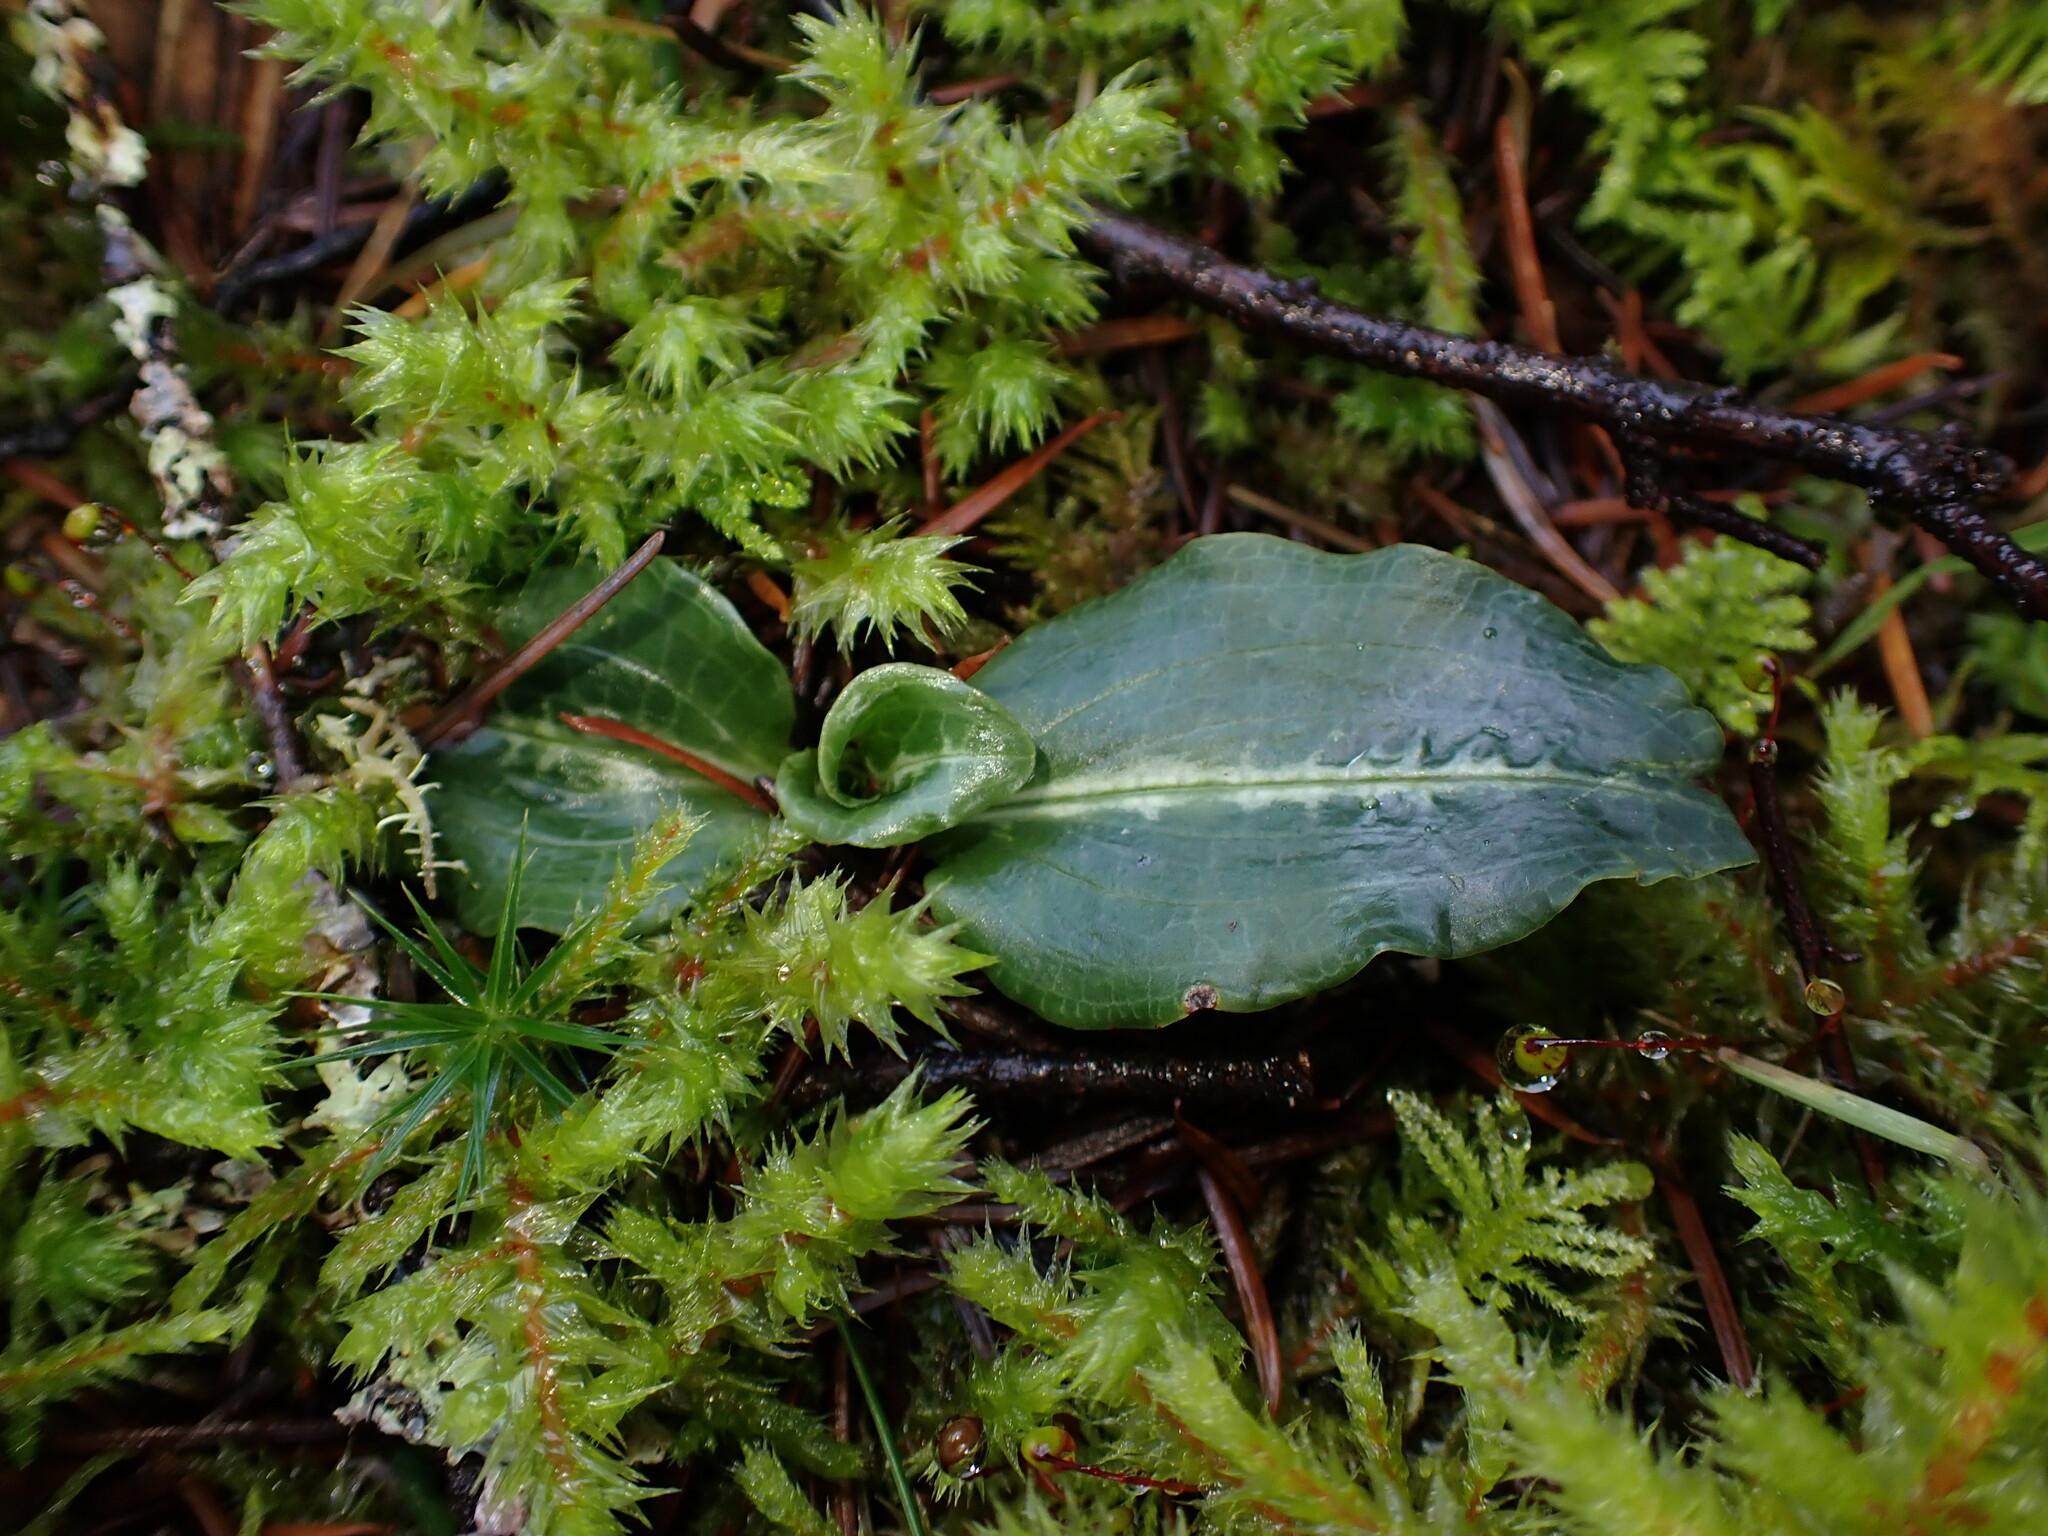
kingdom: Plantae
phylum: Tracheophyta
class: Liliopsida
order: Asparagales
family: Orchidaceae
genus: Goodyera
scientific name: Goodyera oblongifolia
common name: Giant rattlesnake-plantain
